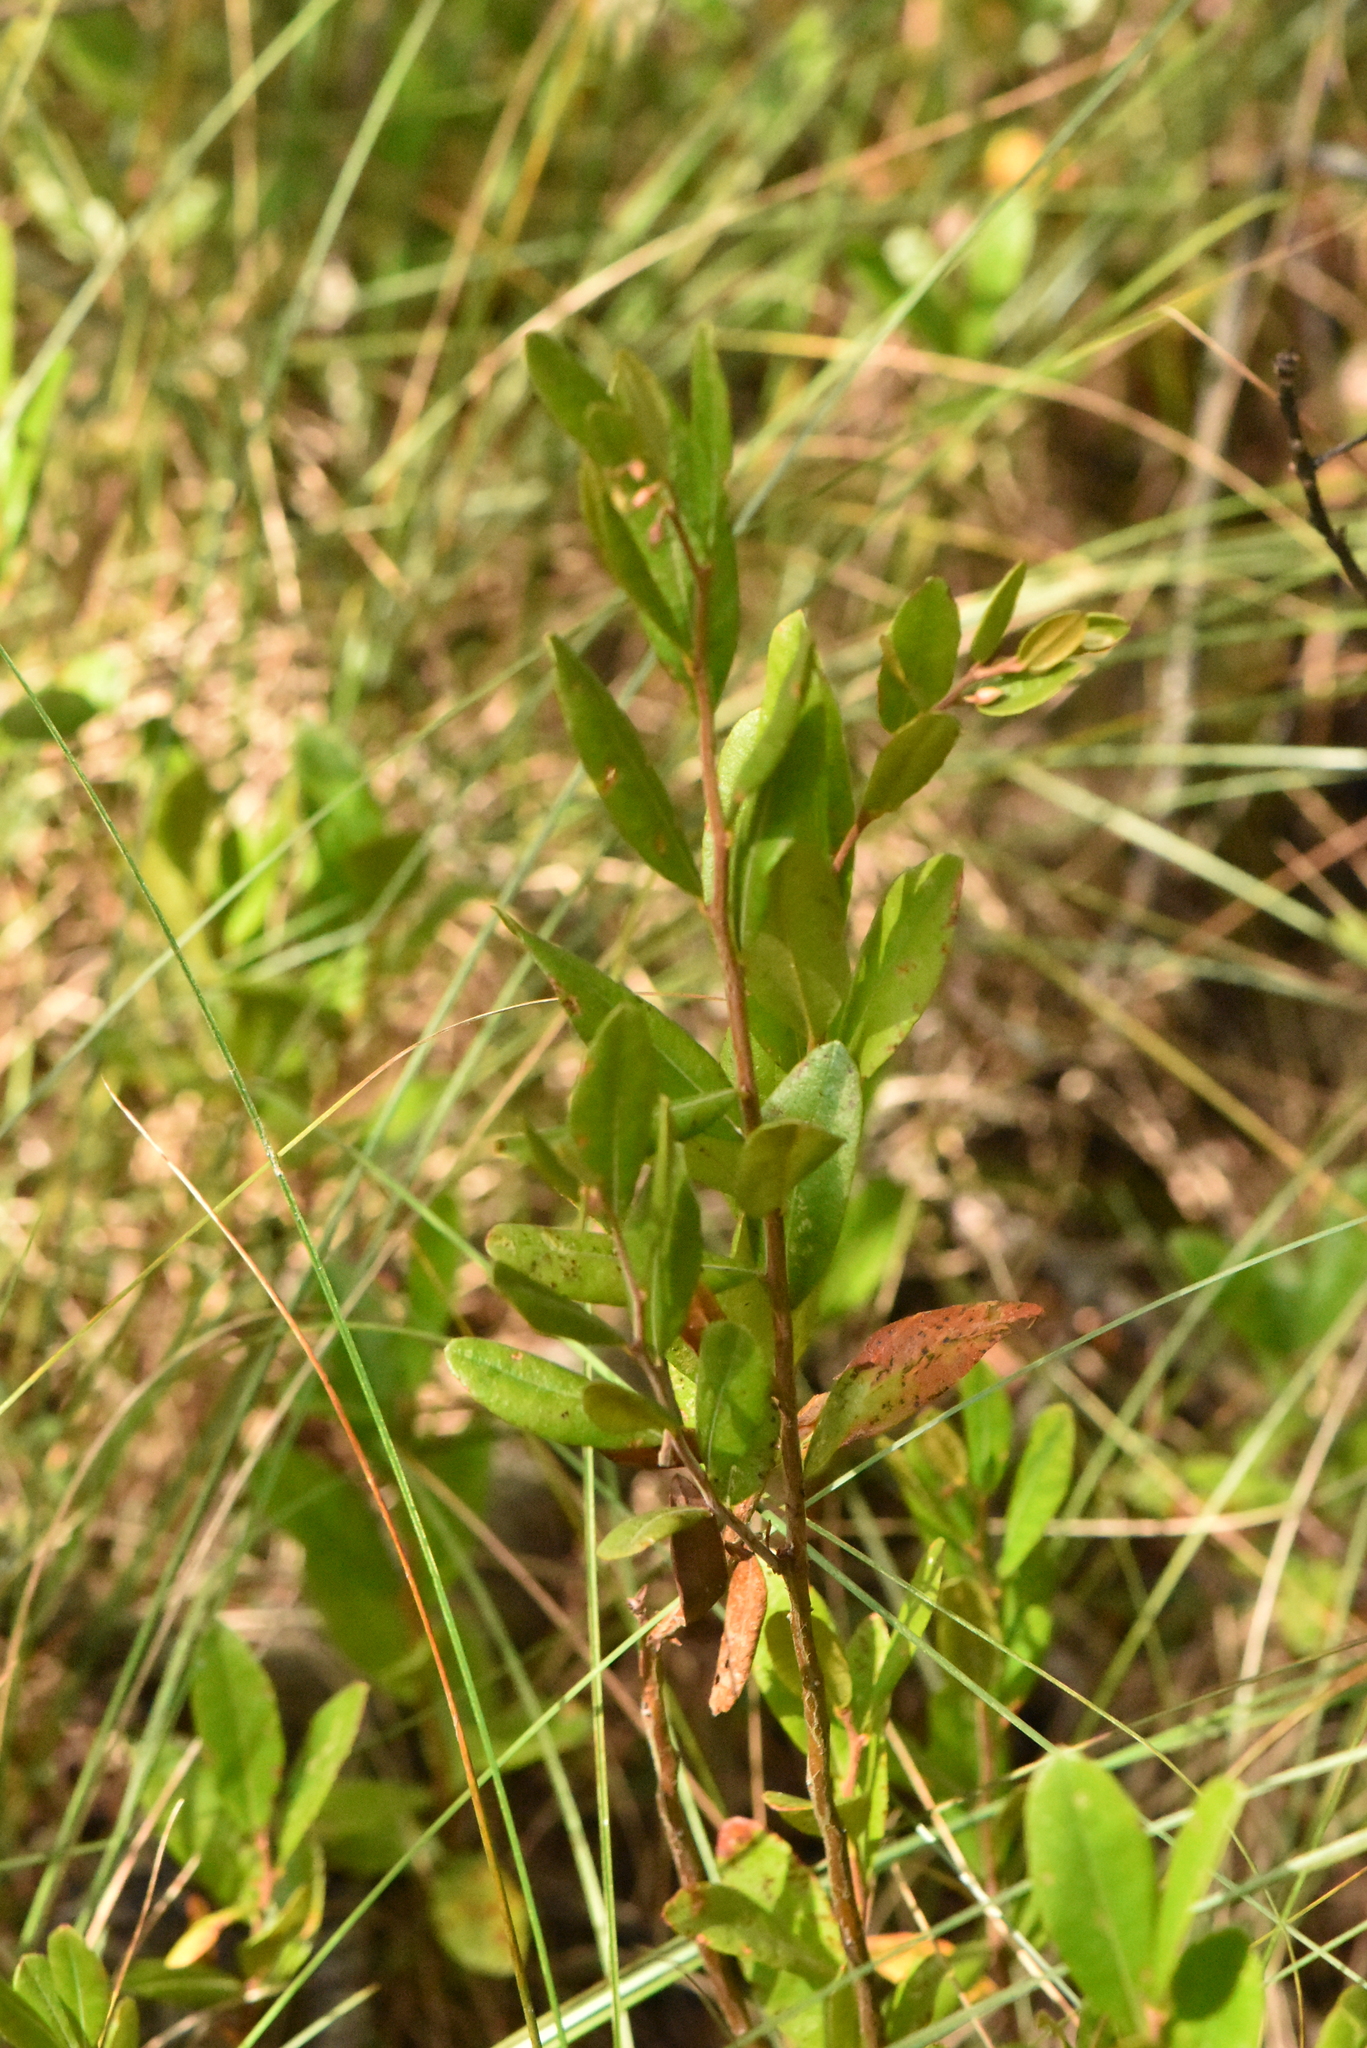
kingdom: Plantae
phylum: Tracheophyta
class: Magnoliopsida
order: Ericales
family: Ericaceae
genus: Chamaedaphne
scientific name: Chamaedaphne calyculata
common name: Leatherleaf
